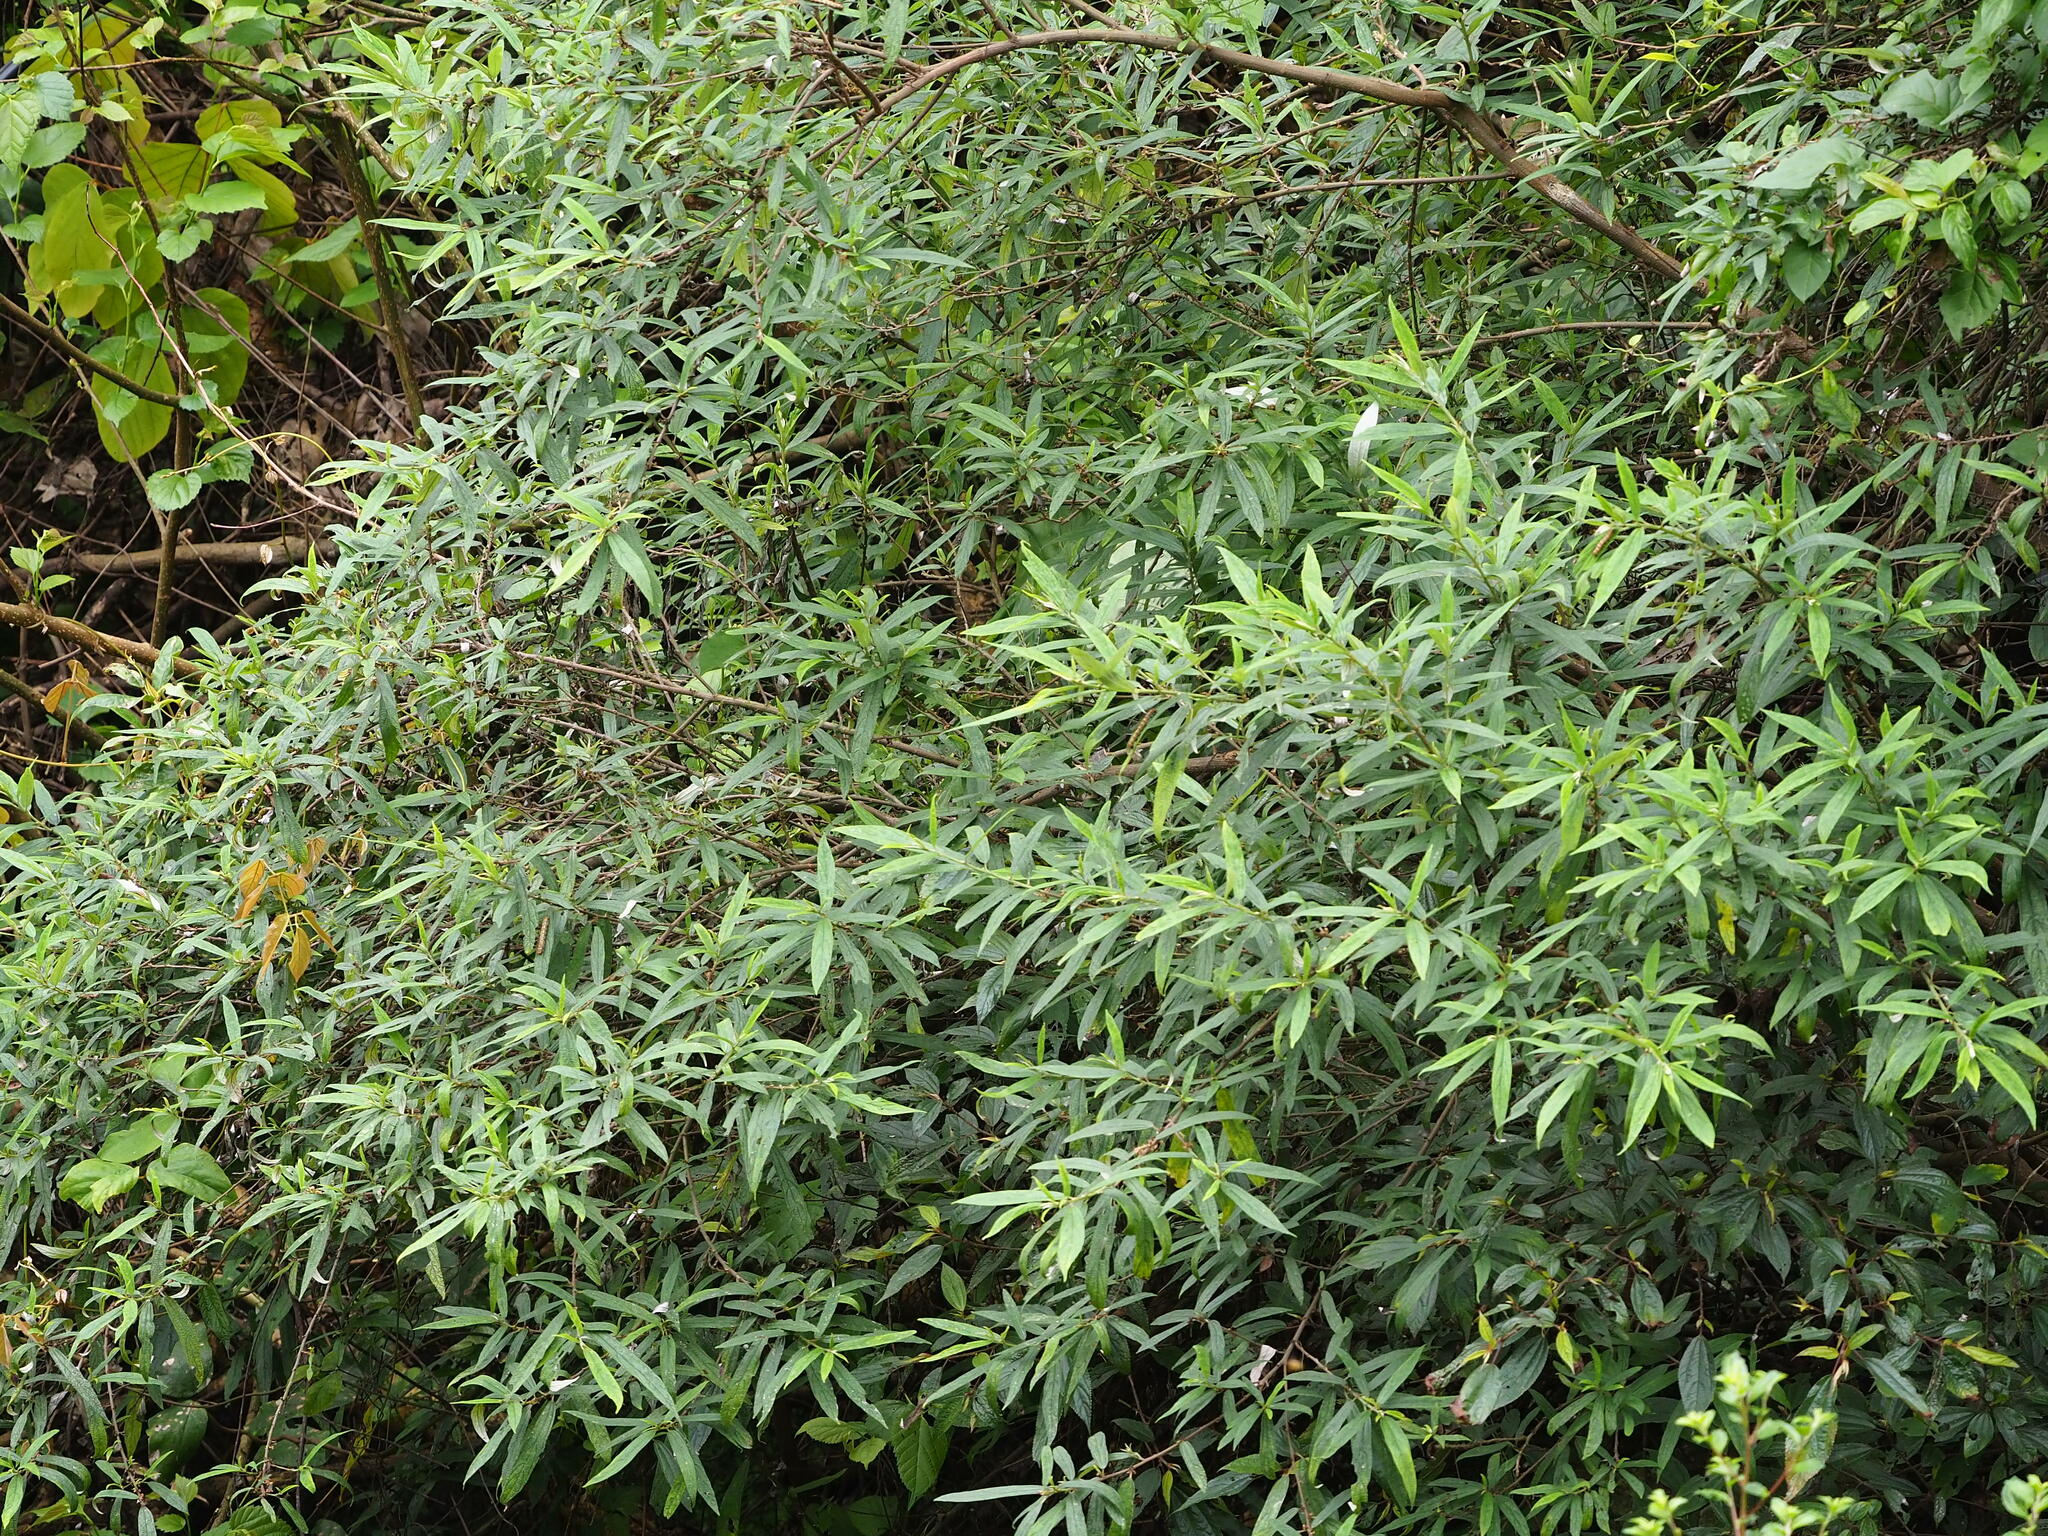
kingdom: Plantae
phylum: Tracheophyta
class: Magnoliopsida
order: Rosales
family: Urticaceae
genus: Debregeasia
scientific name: Debregeasia orientalis
